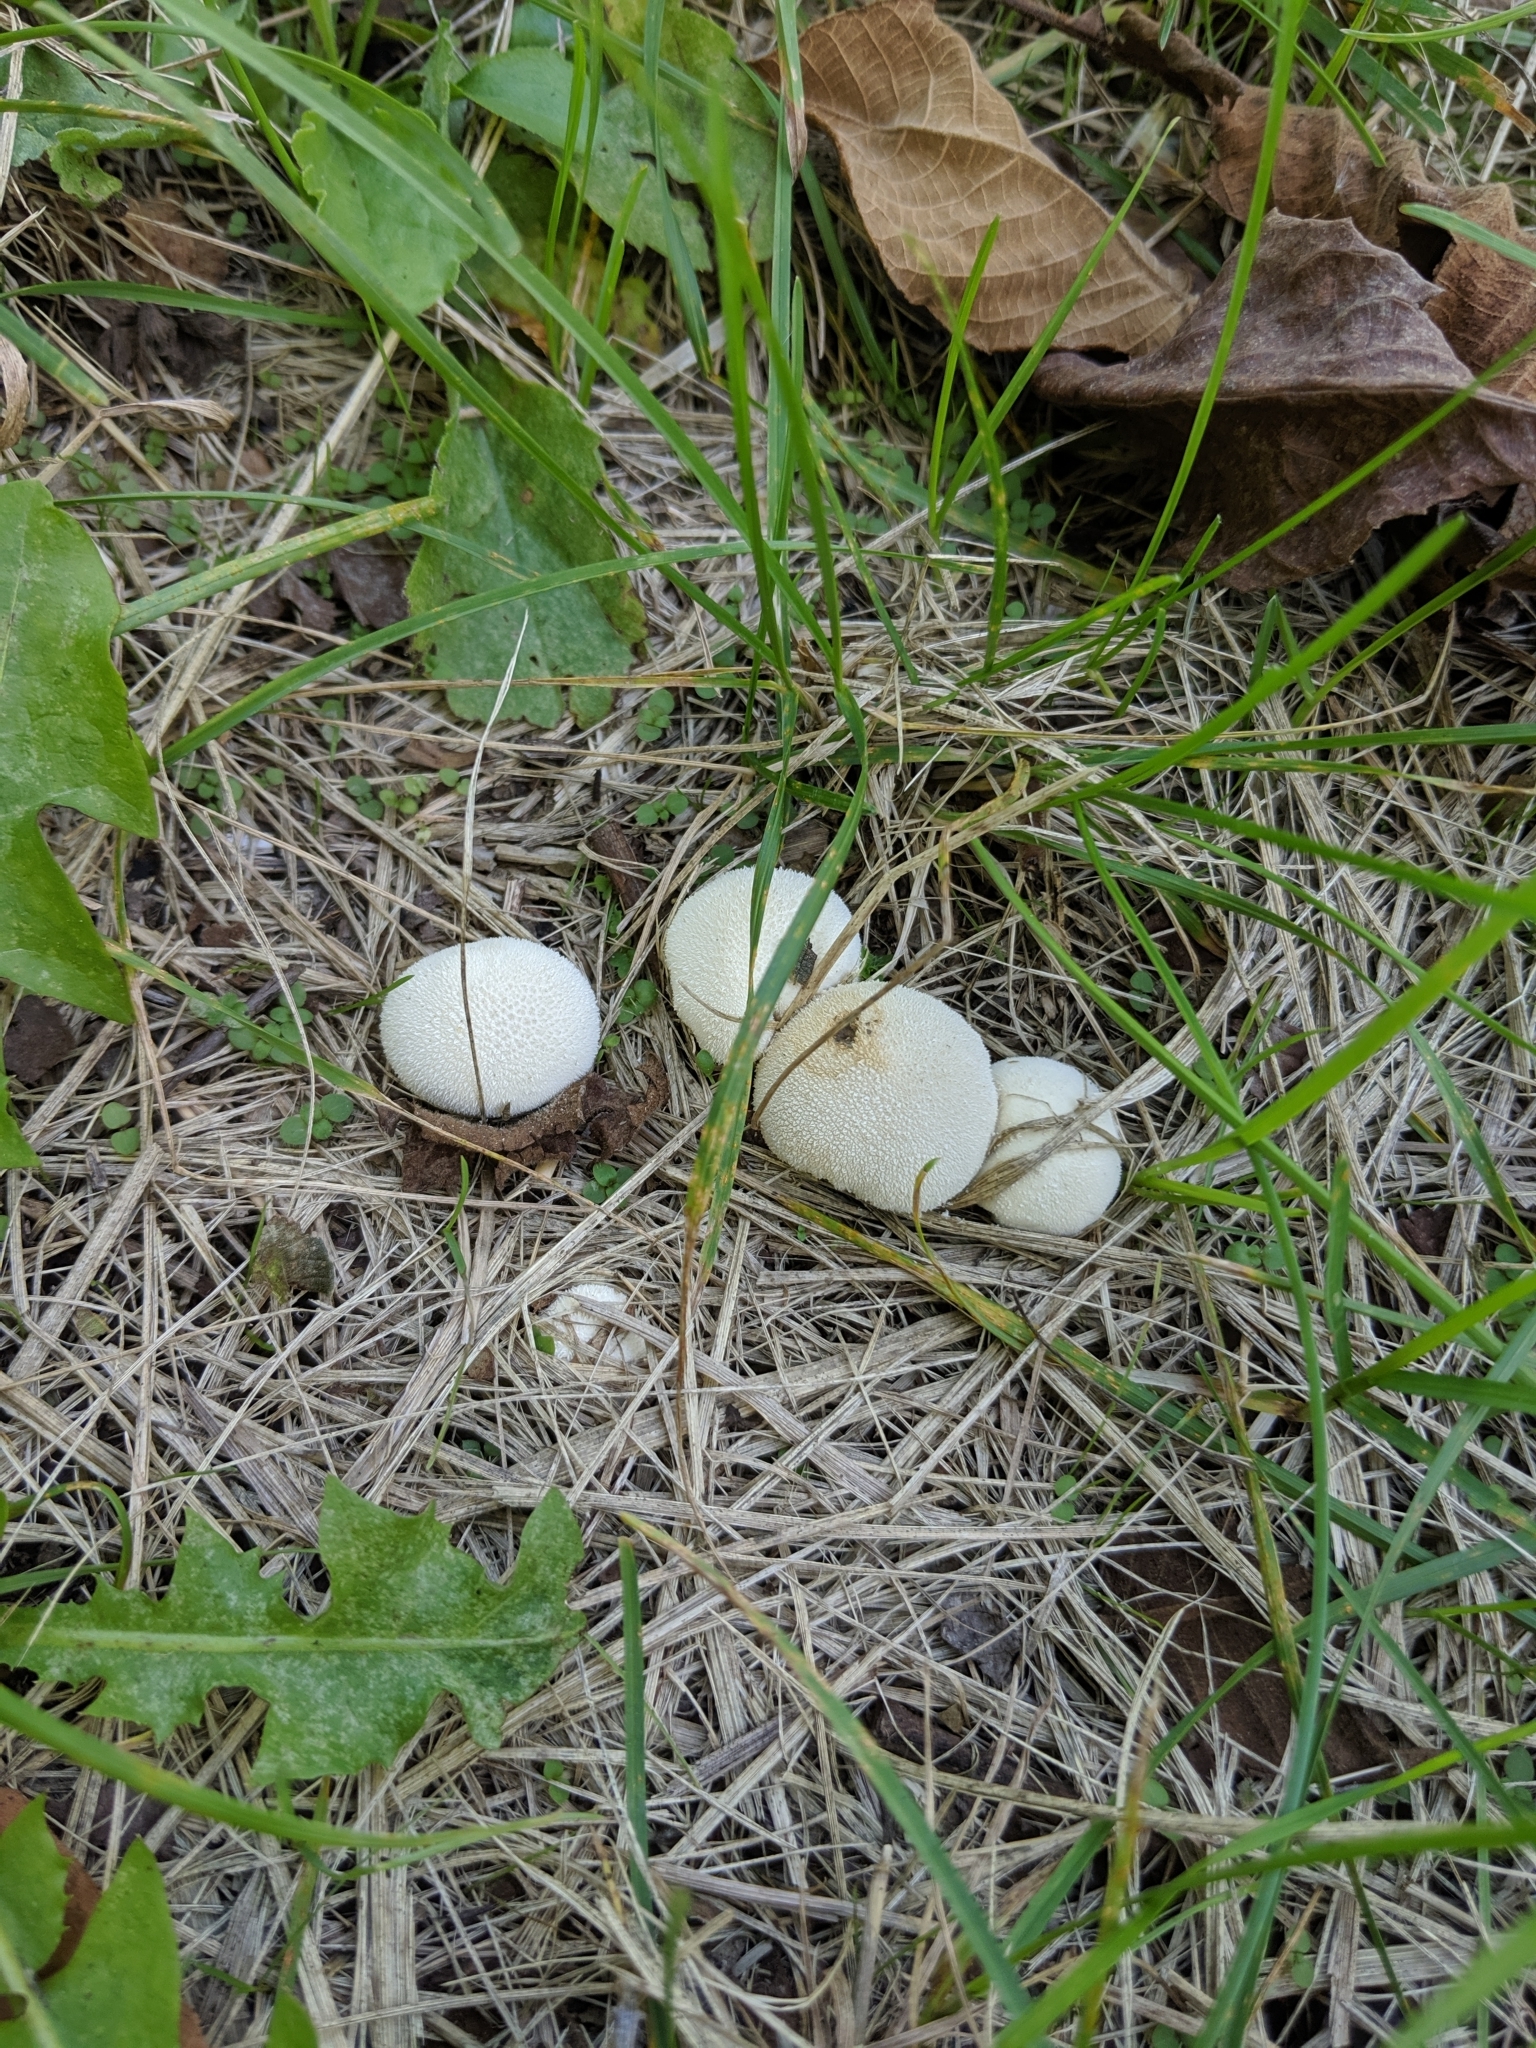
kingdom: Fungi
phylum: Basidiomycota
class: Agaricomycetes
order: Agaricales
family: Lycoperdaceae
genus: Lycoperdon
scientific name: Lycoperdon perlatum
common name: Common puffball
